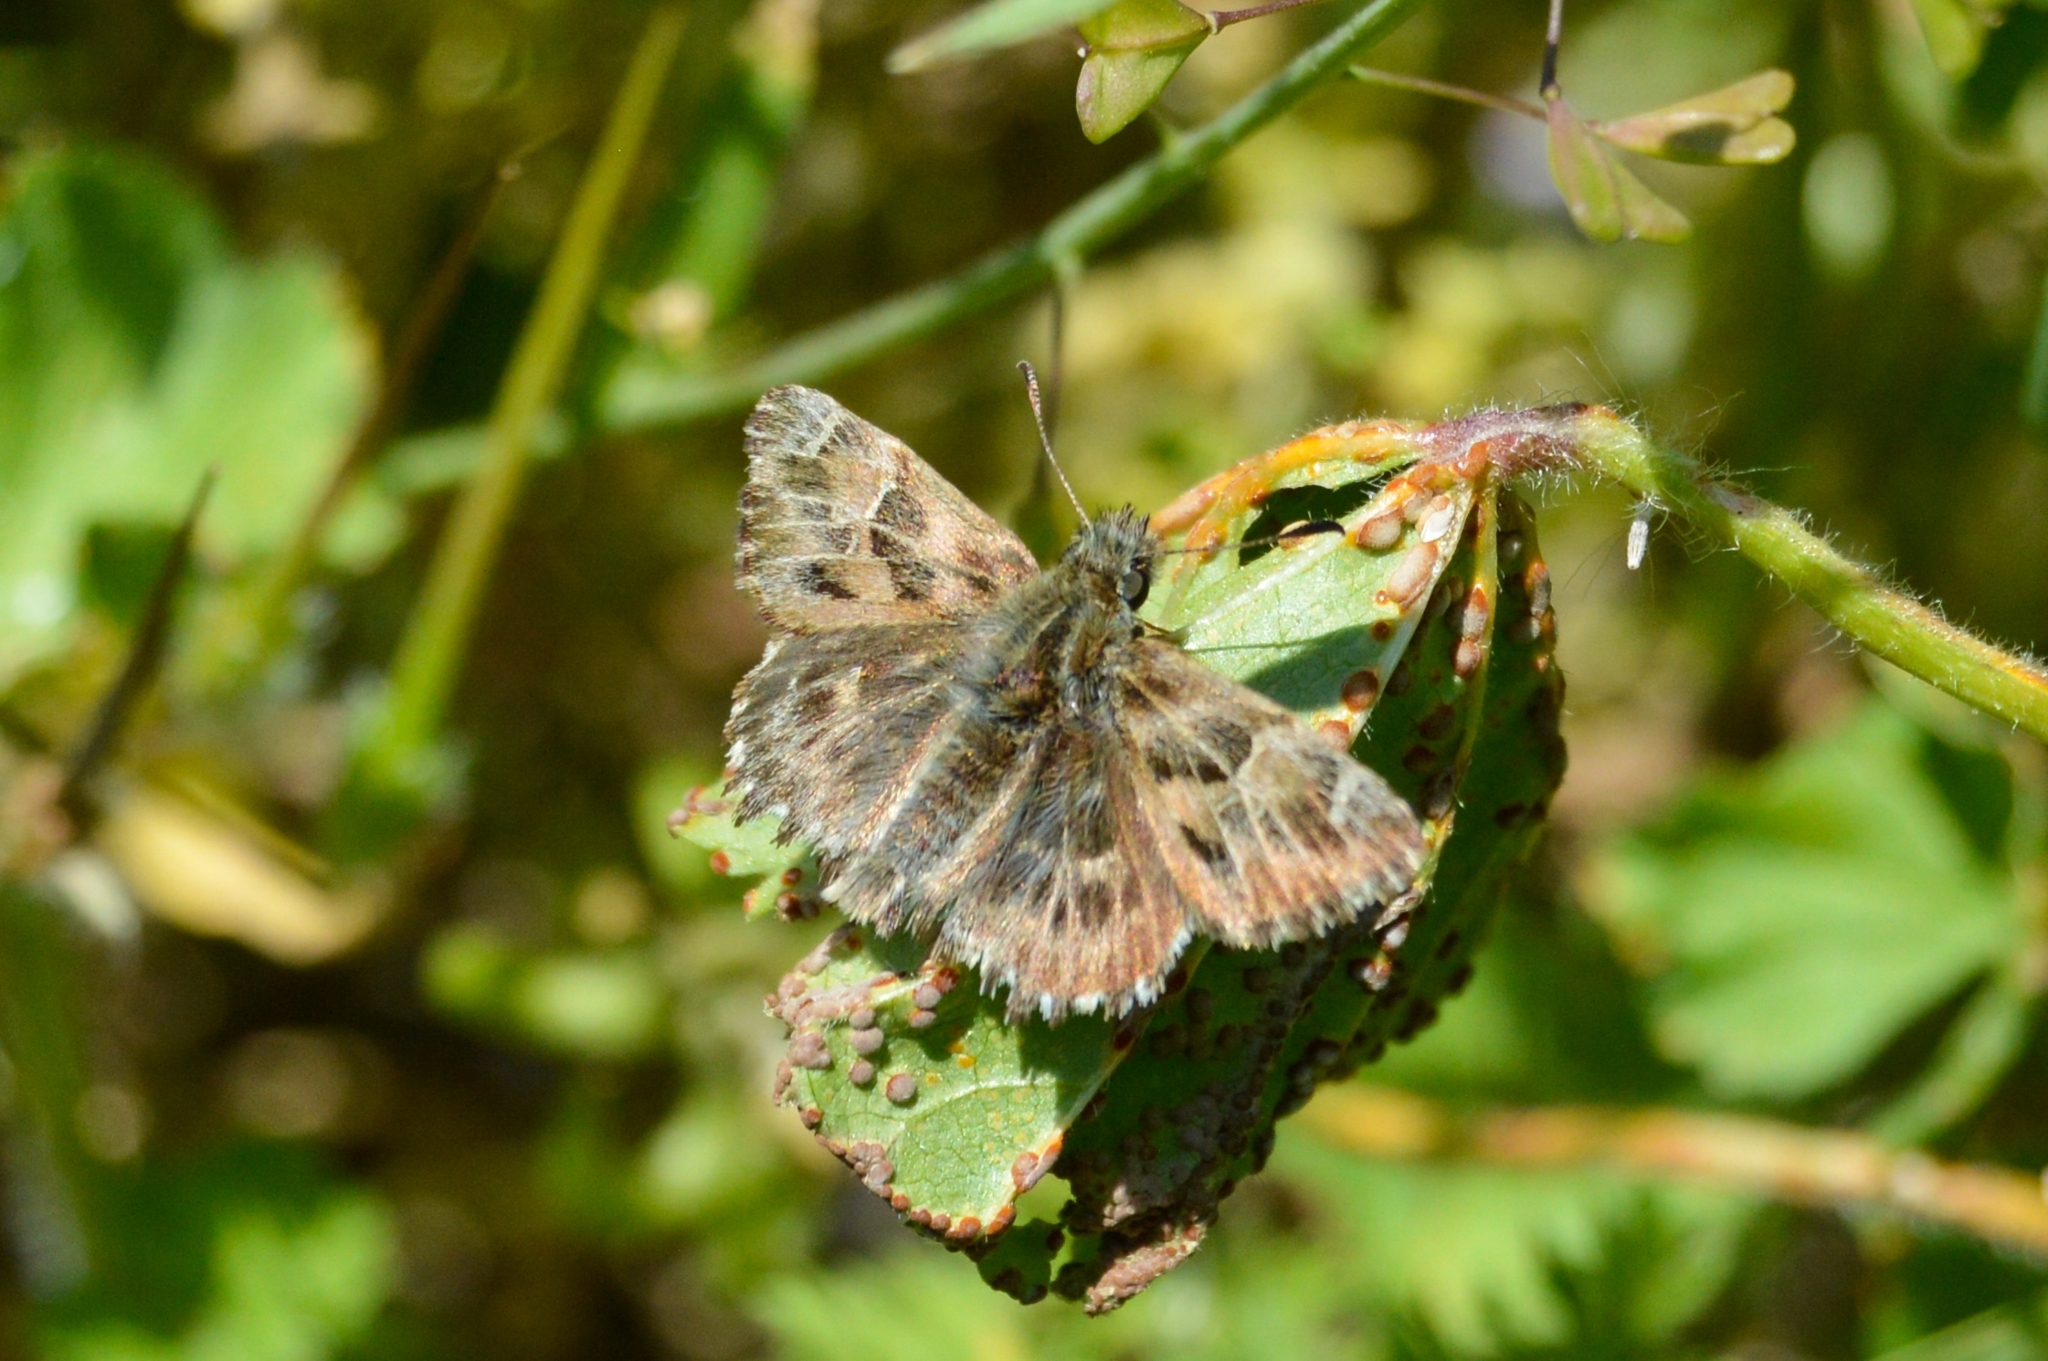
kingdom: Animalia
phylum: Arthropoda
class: Insecta
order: Lepidoptera
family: Hesperiidae
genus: Carcharodus
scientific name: Carcharodus alceae
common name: Mallow skipper
